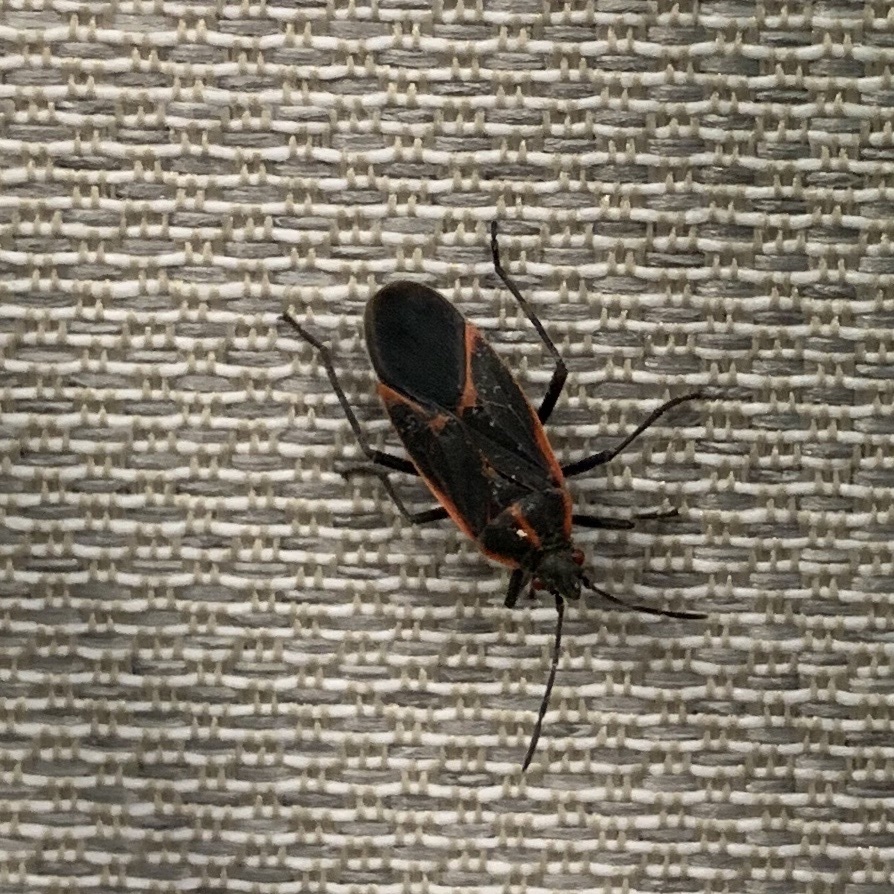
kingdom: Animalia
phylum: Arthropoda
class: Insecta
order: Hemiptera
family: Rhopalidae
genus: Boisea
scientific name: Boisea trivittata
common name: Boxelder bug
